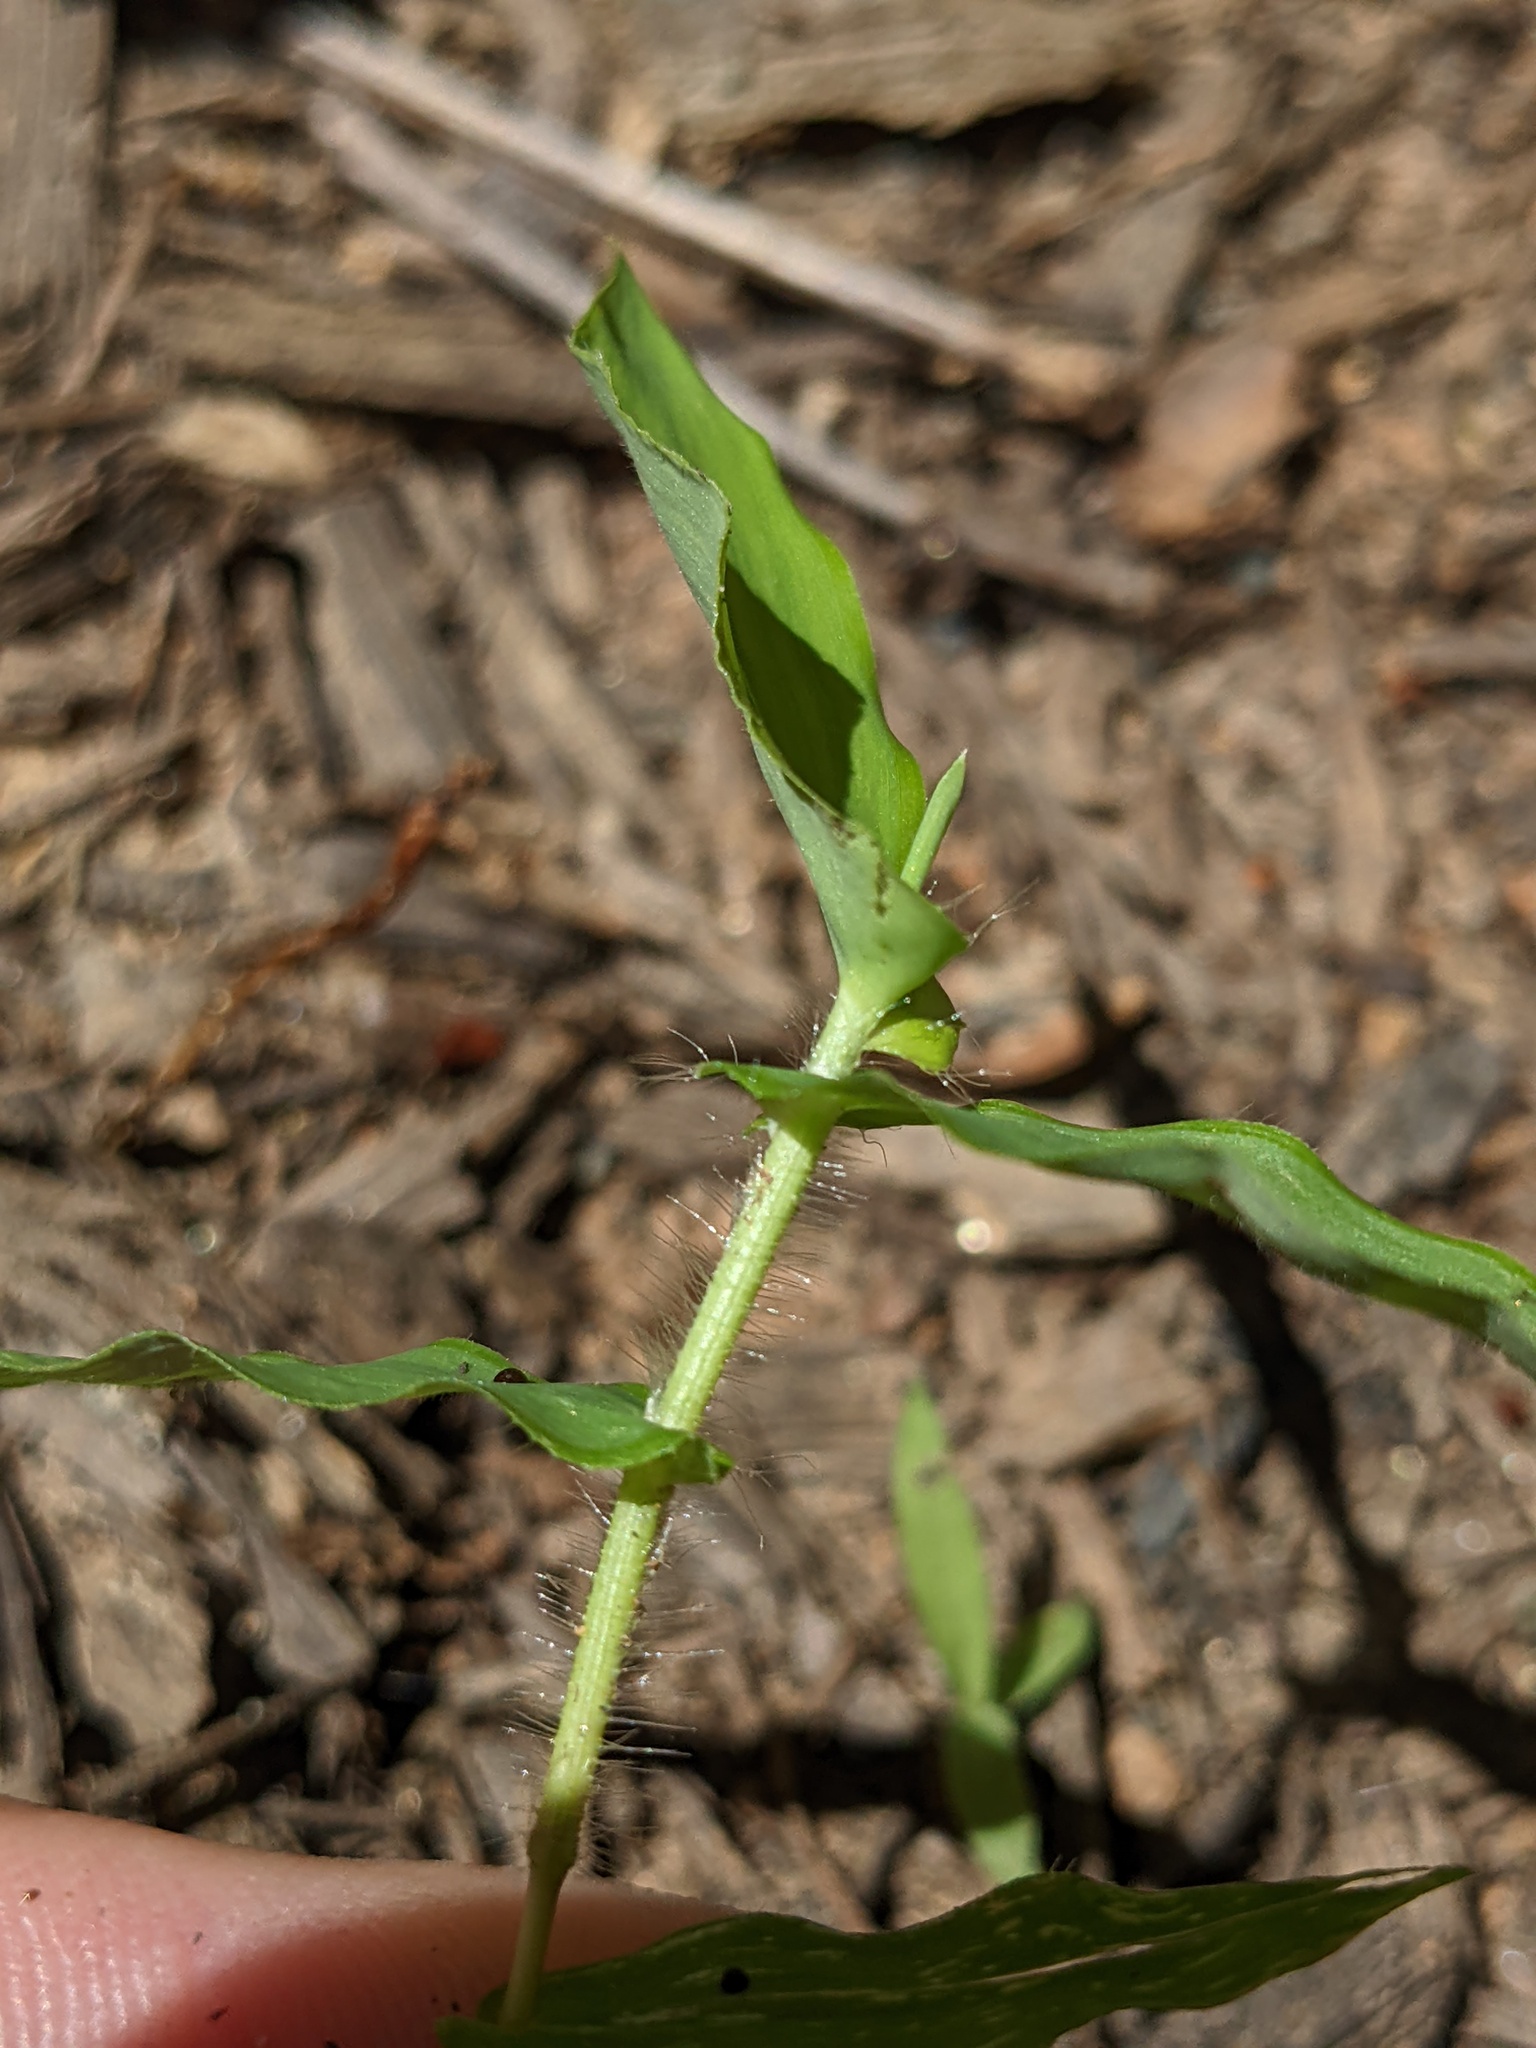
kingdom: Plantae
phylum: Tracheophyta
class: Liliopsida
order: Poales
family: Poaceae
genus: Arthraxon
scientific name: Arthraxon hispidus
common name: Small carpgrass
